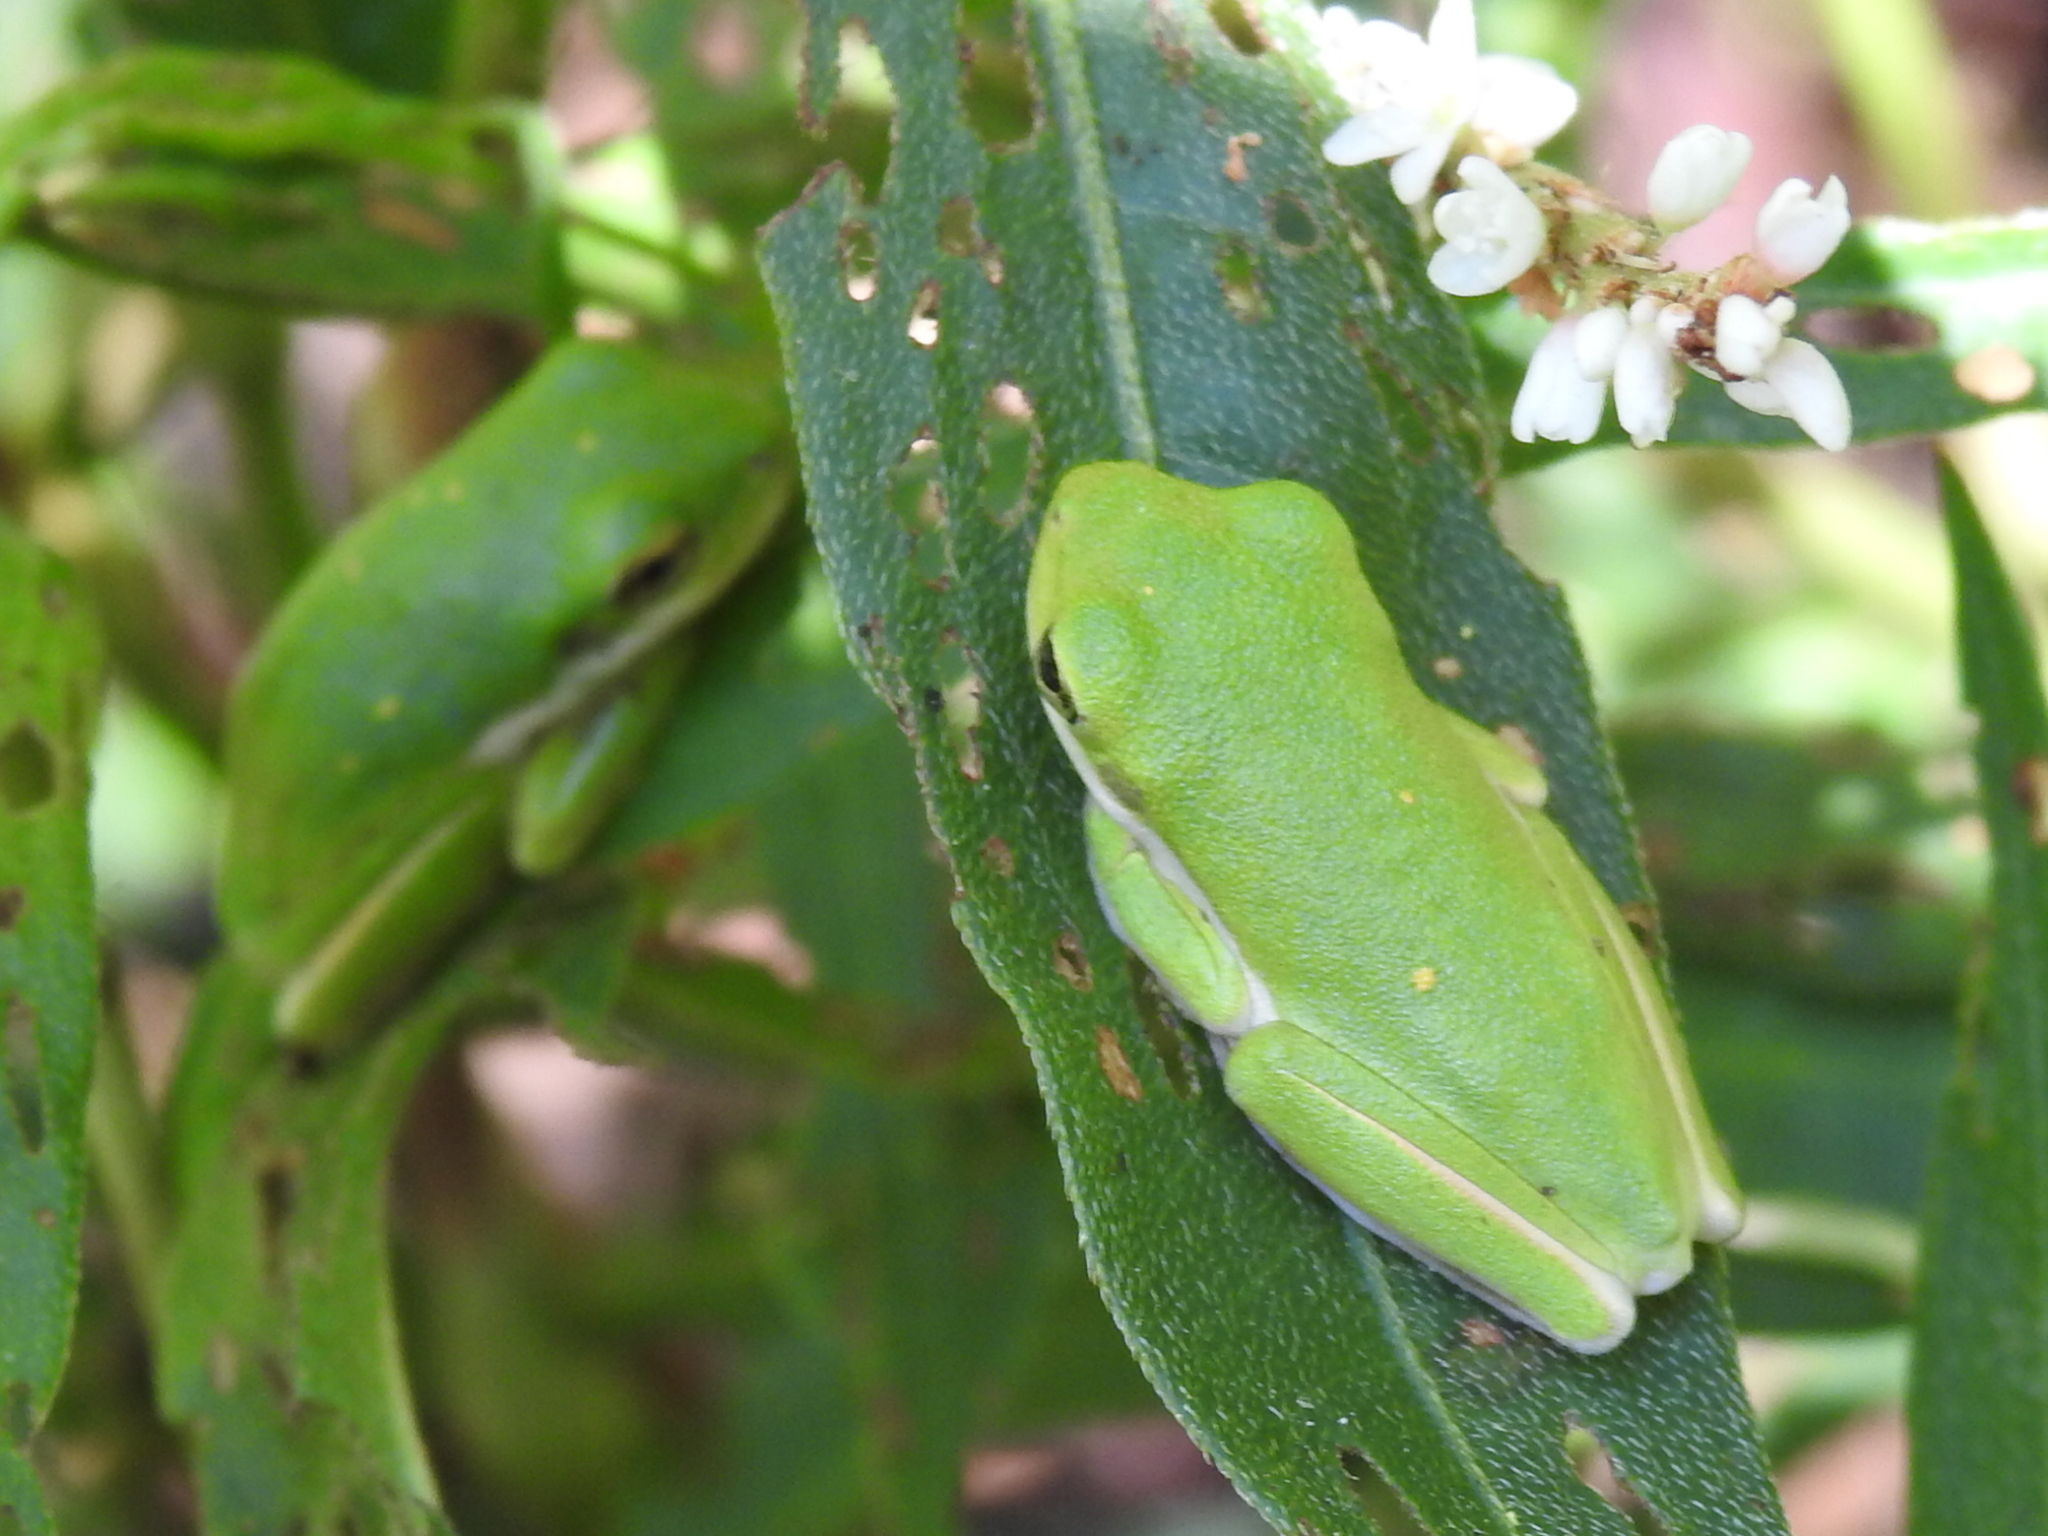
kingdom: Animalia
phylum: Chordata
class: Amphibia
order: Anura
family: Hylidae
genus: Dryophytes
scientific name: Dryophytes cinereus
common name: Green treefrog
